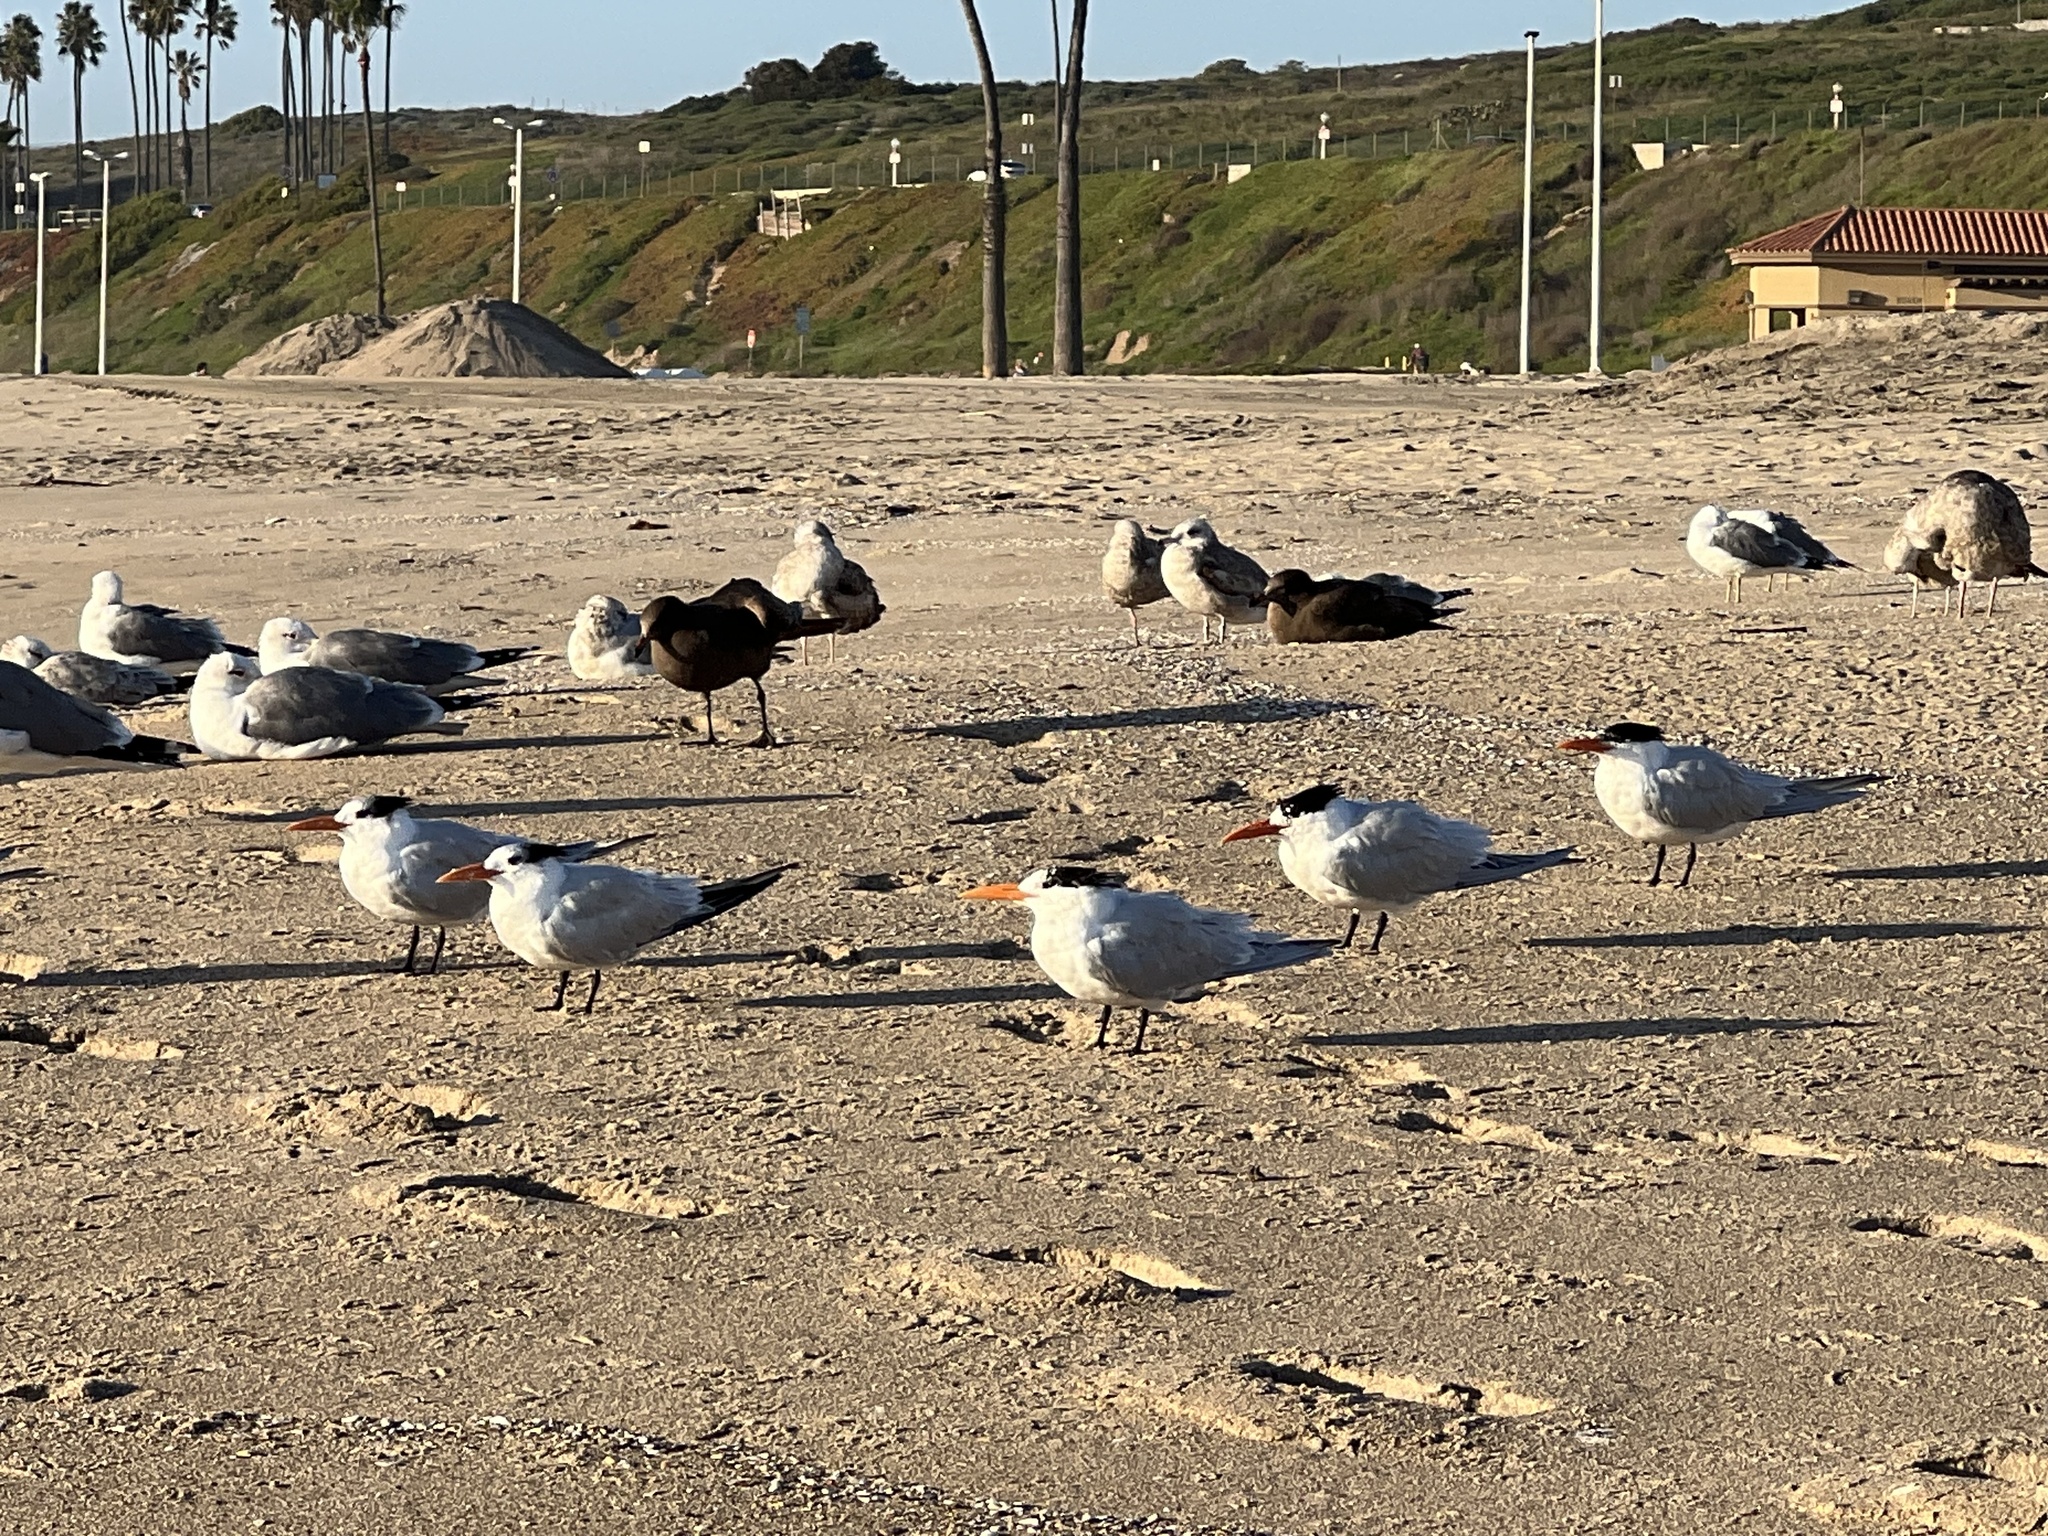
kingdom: Animalia
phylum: Chordata
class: Aves
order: Charadriiformes
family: Laridae
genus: Thalasseus
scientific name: Thalasseus maximus
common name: Royal tern
